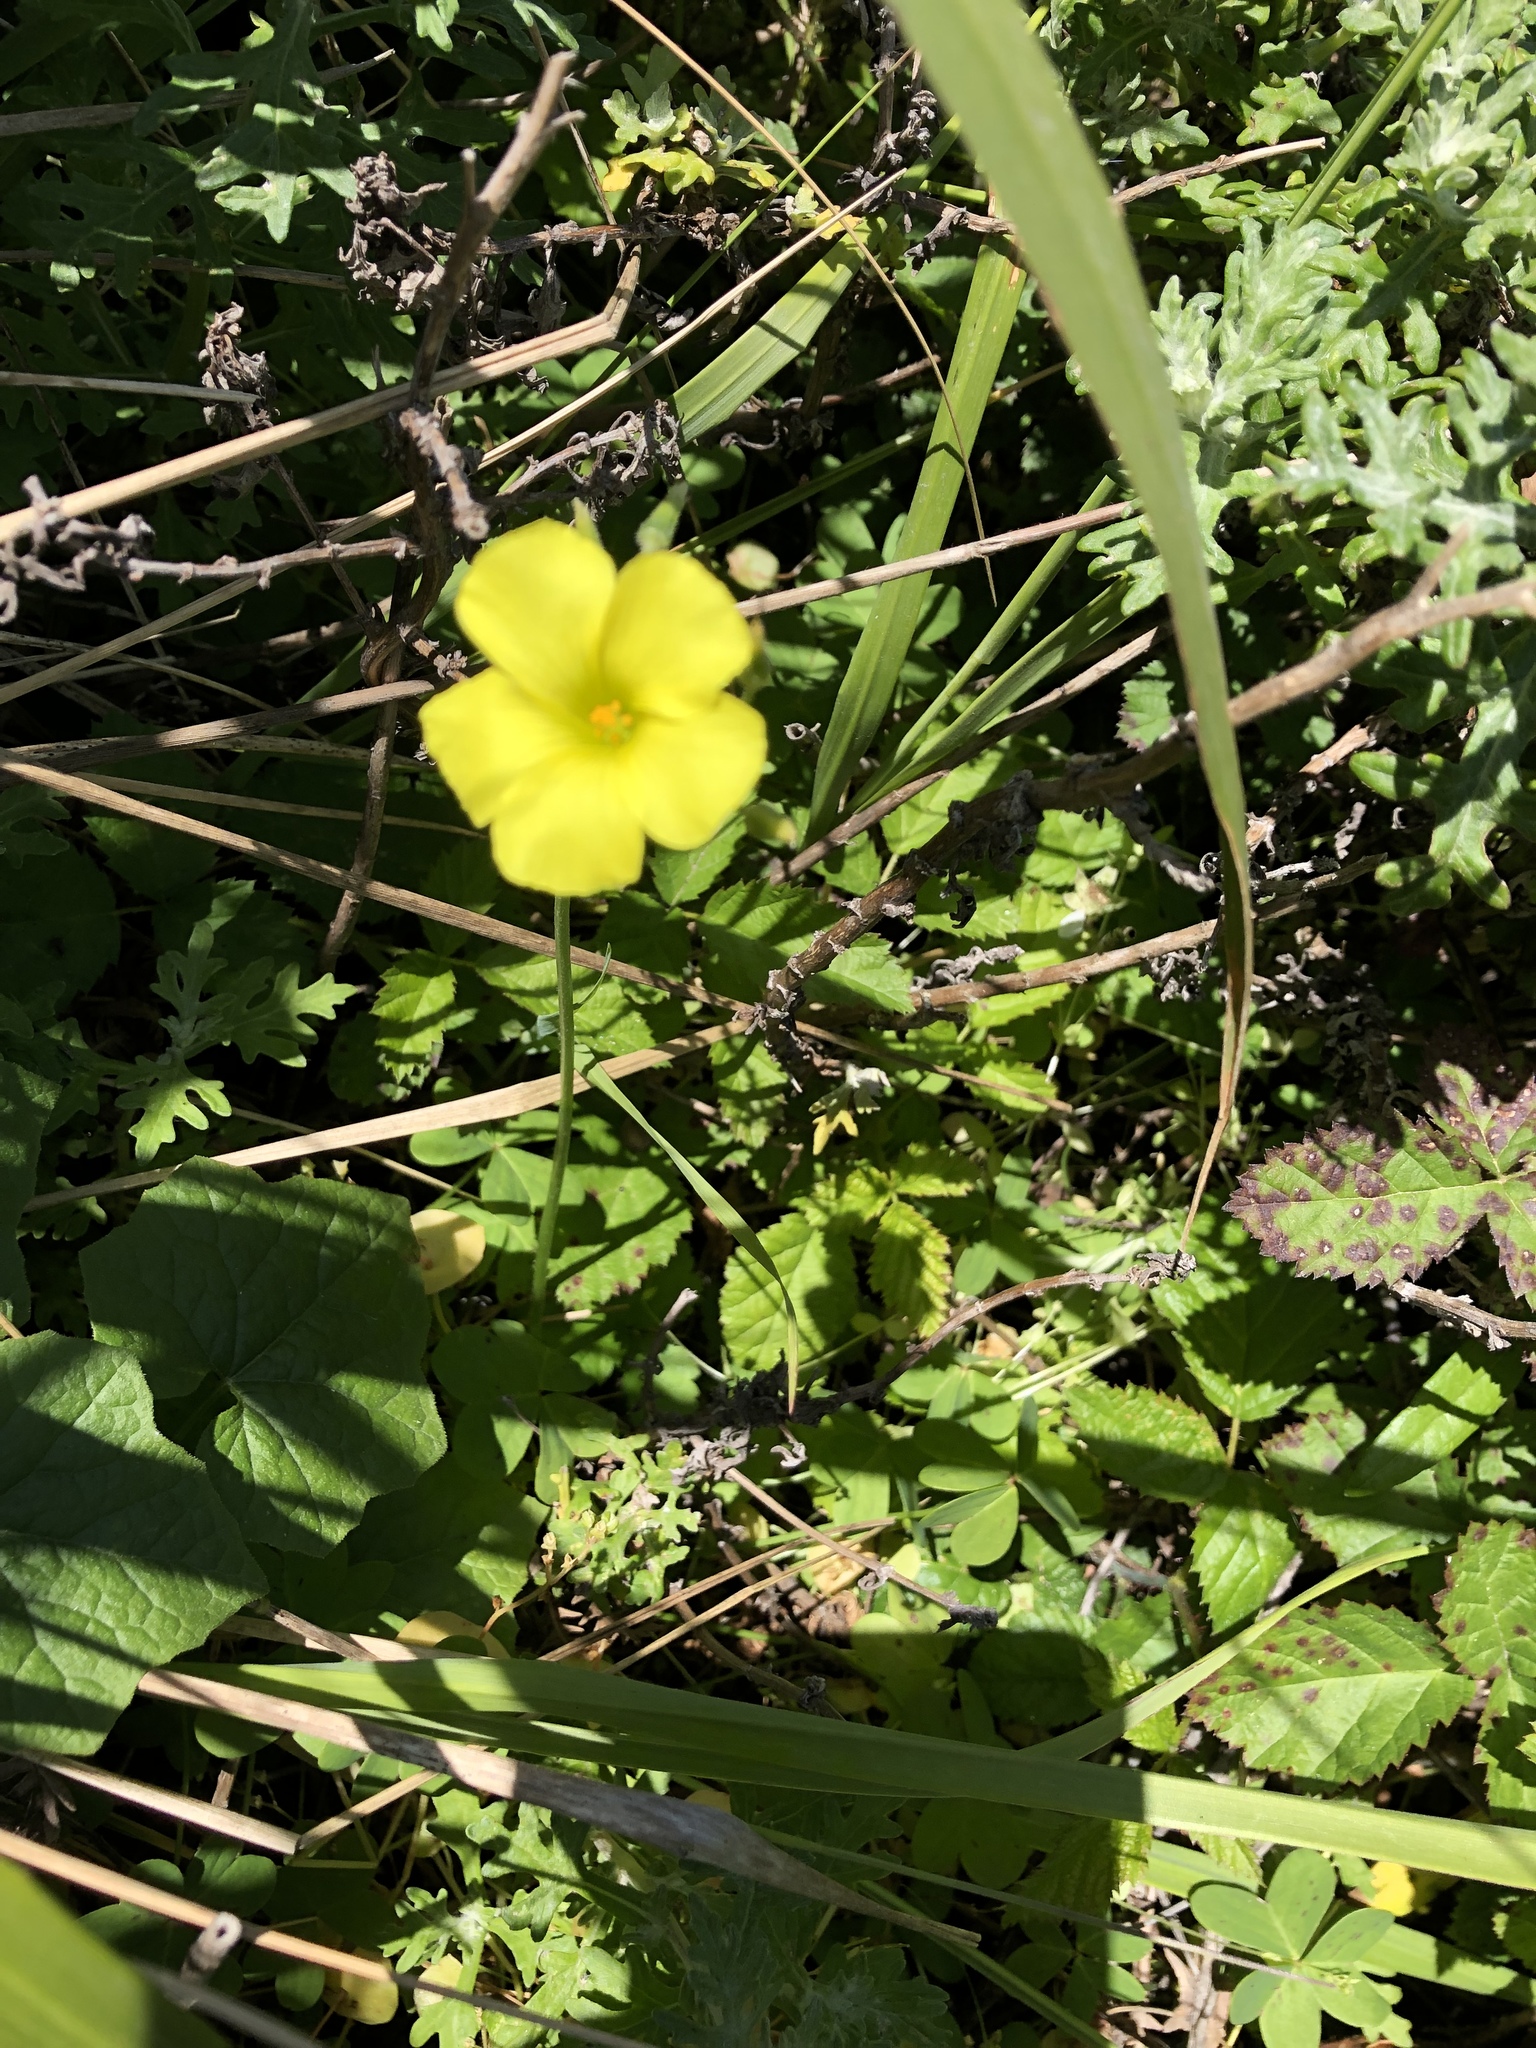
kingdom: Plantae
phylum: Tracheophyta
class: Magnoliopsida
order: Oxalidales
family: Oxalidaceae
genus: Oxalis
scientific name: Oxalis pes-caprae
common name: Bermuda-buttercup
